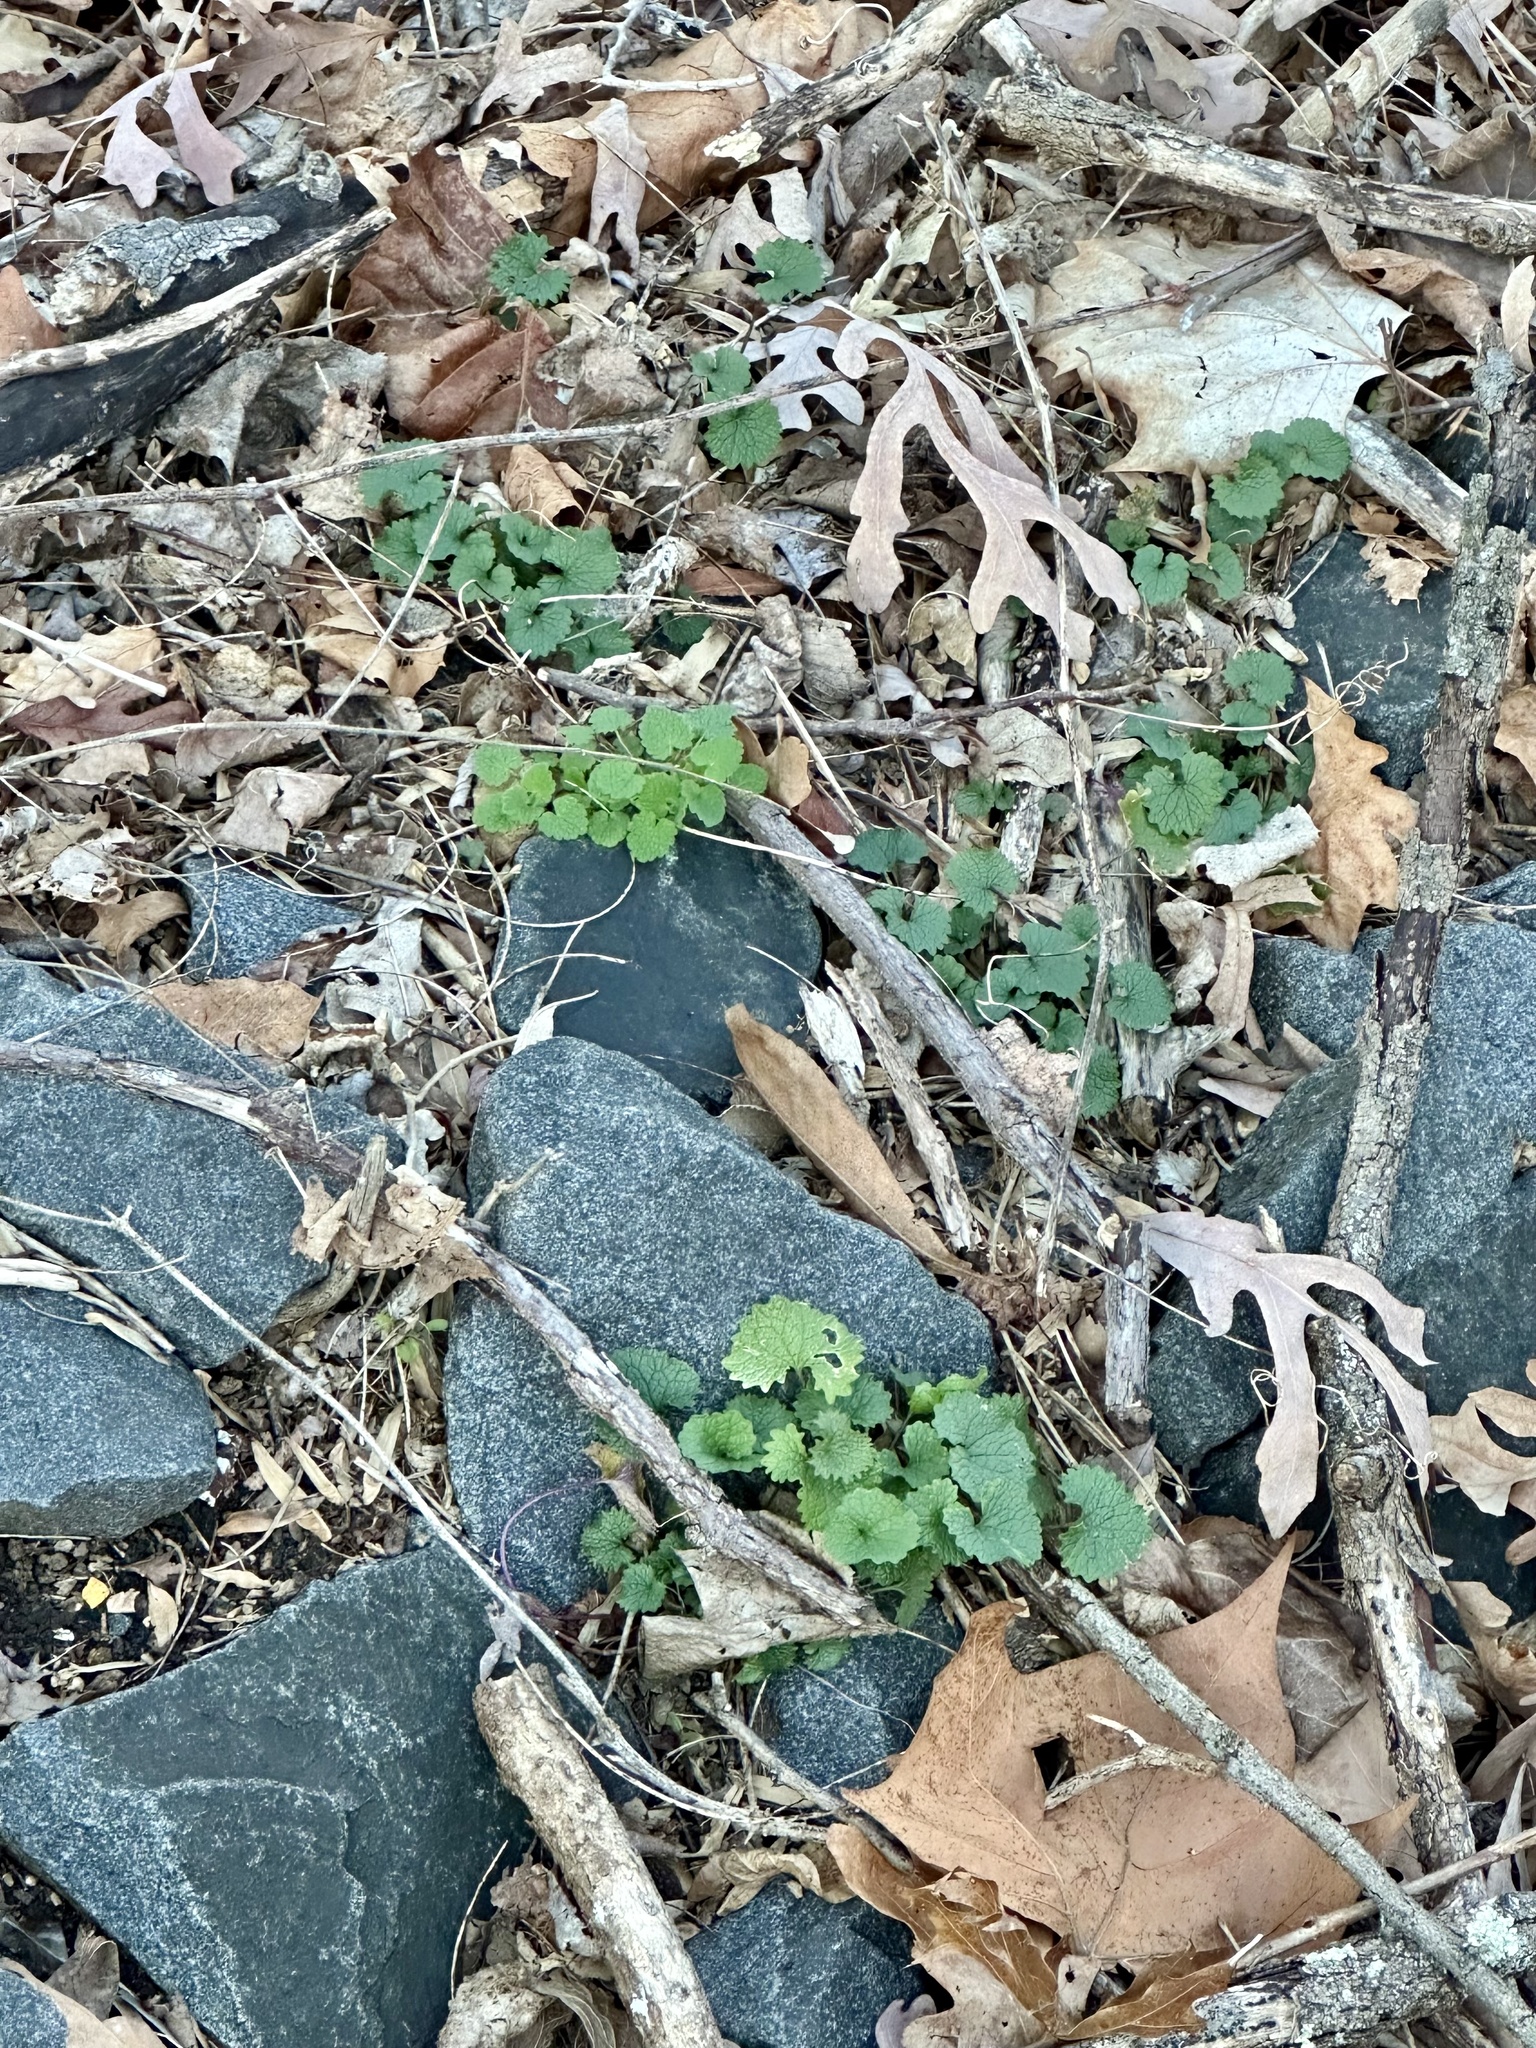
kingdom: Plantae
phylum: Tracheophyta
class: Magnoliopsida
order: Brassicales
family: Brassicaceae
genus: Alliaria
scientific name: Alliaria petiolata
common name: Garlic mustard
